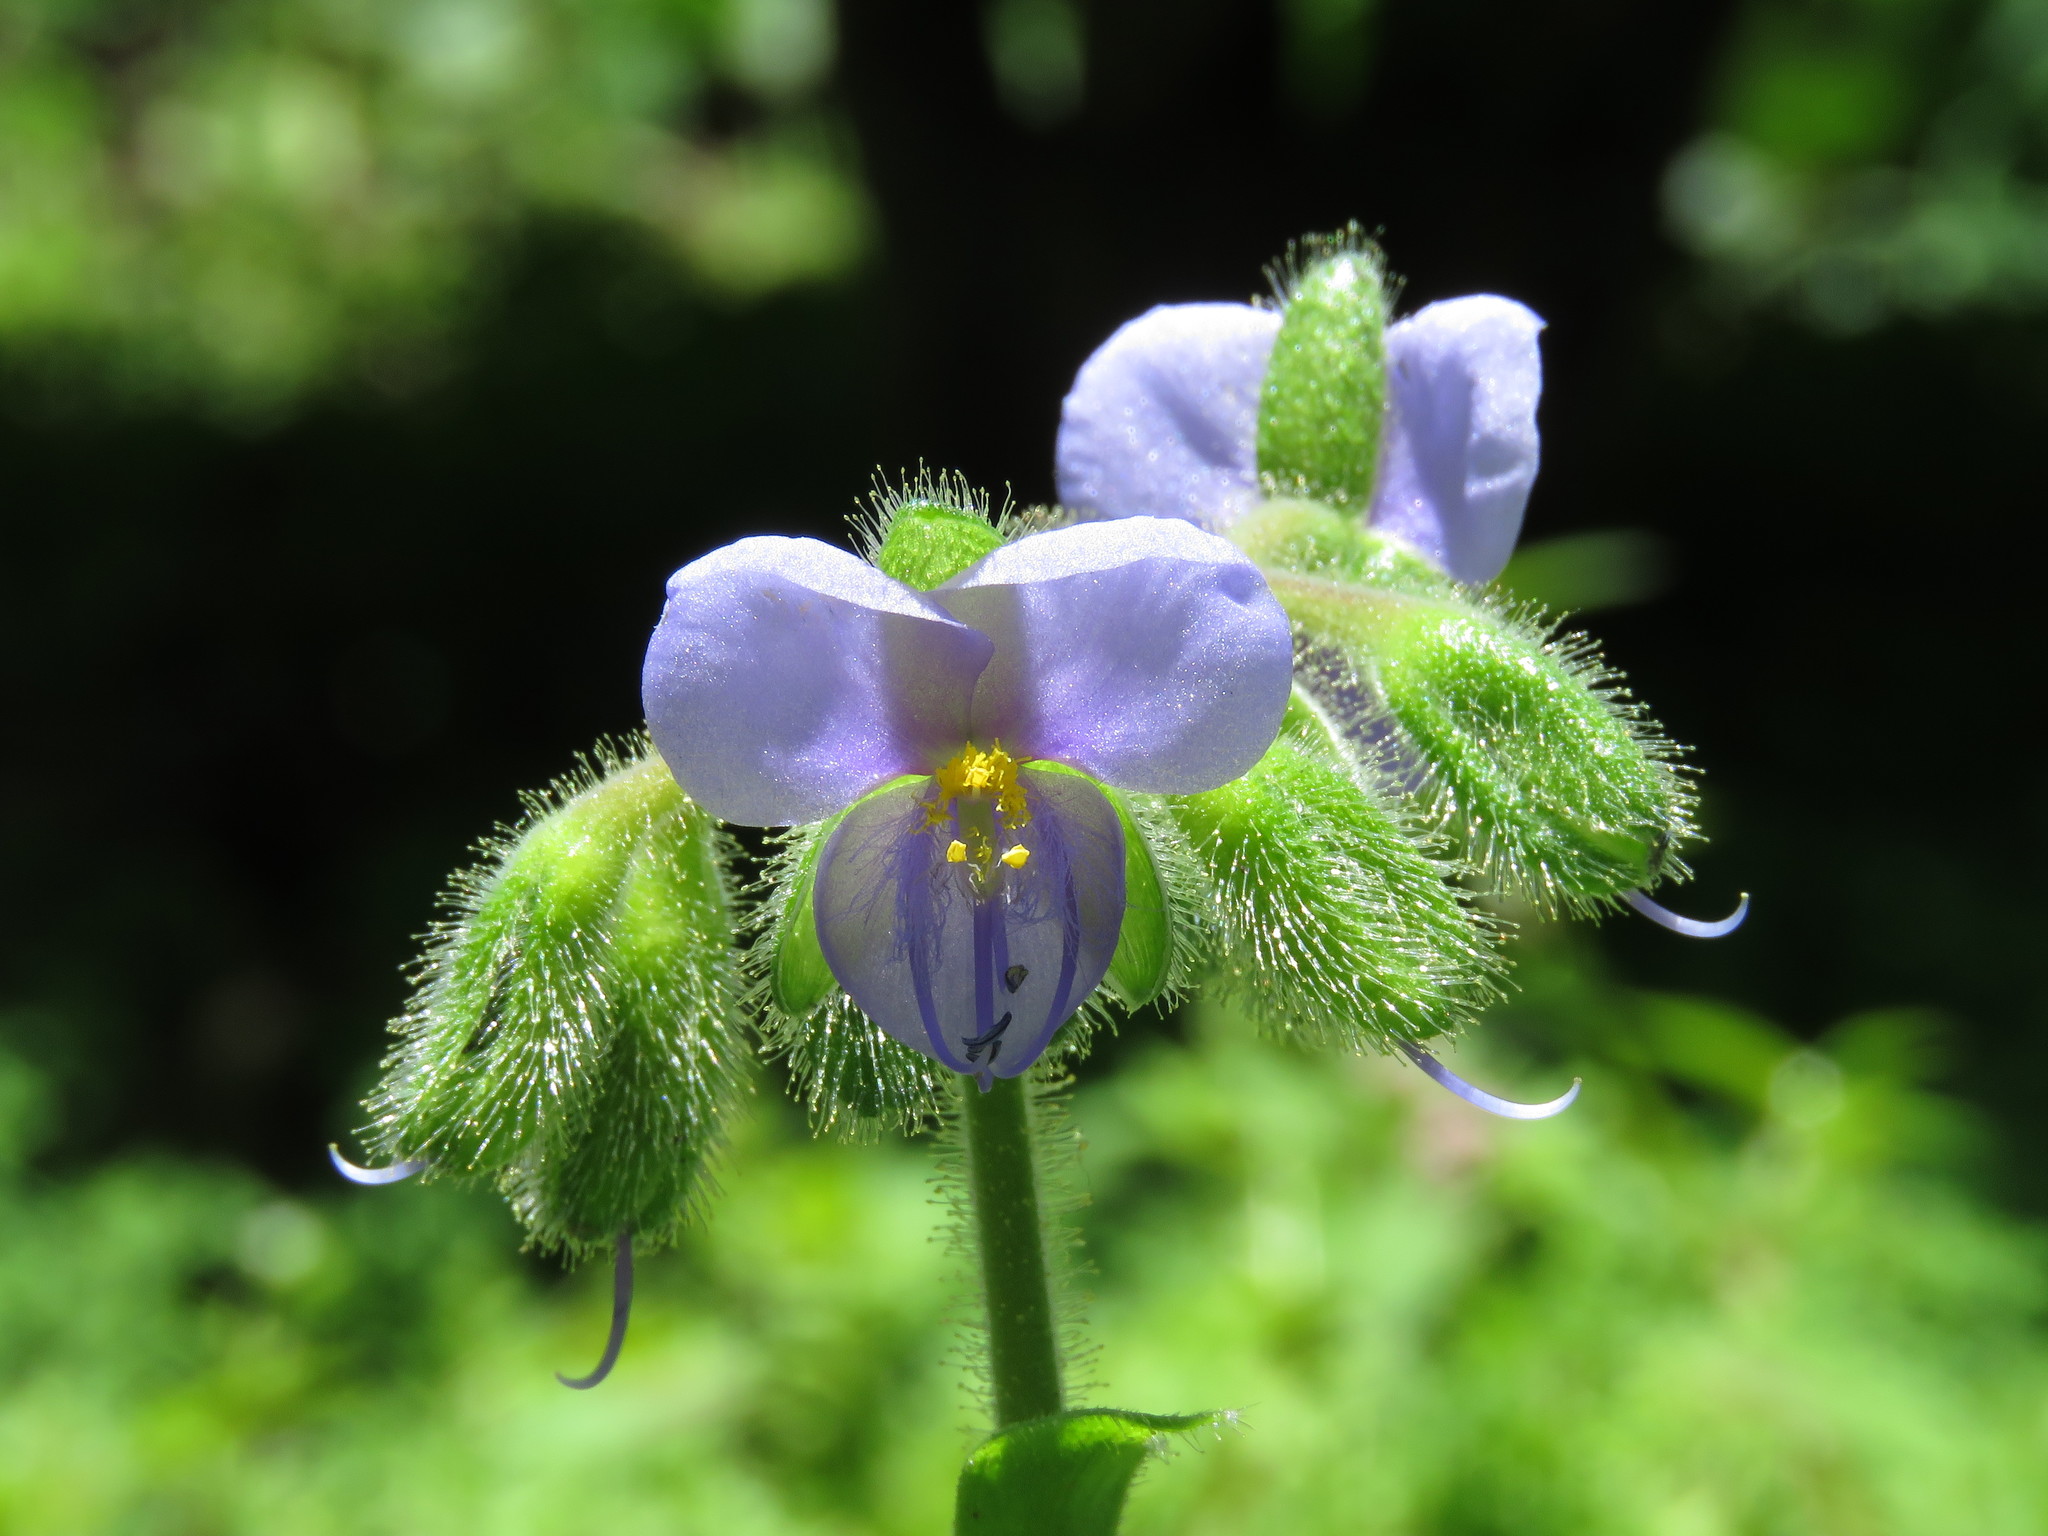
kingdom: Plantae
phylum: Tracheophyta
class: Liliopsida
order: Commelinales
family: Commelinaceae
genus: Tinantia
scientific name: Tinantia erecta
